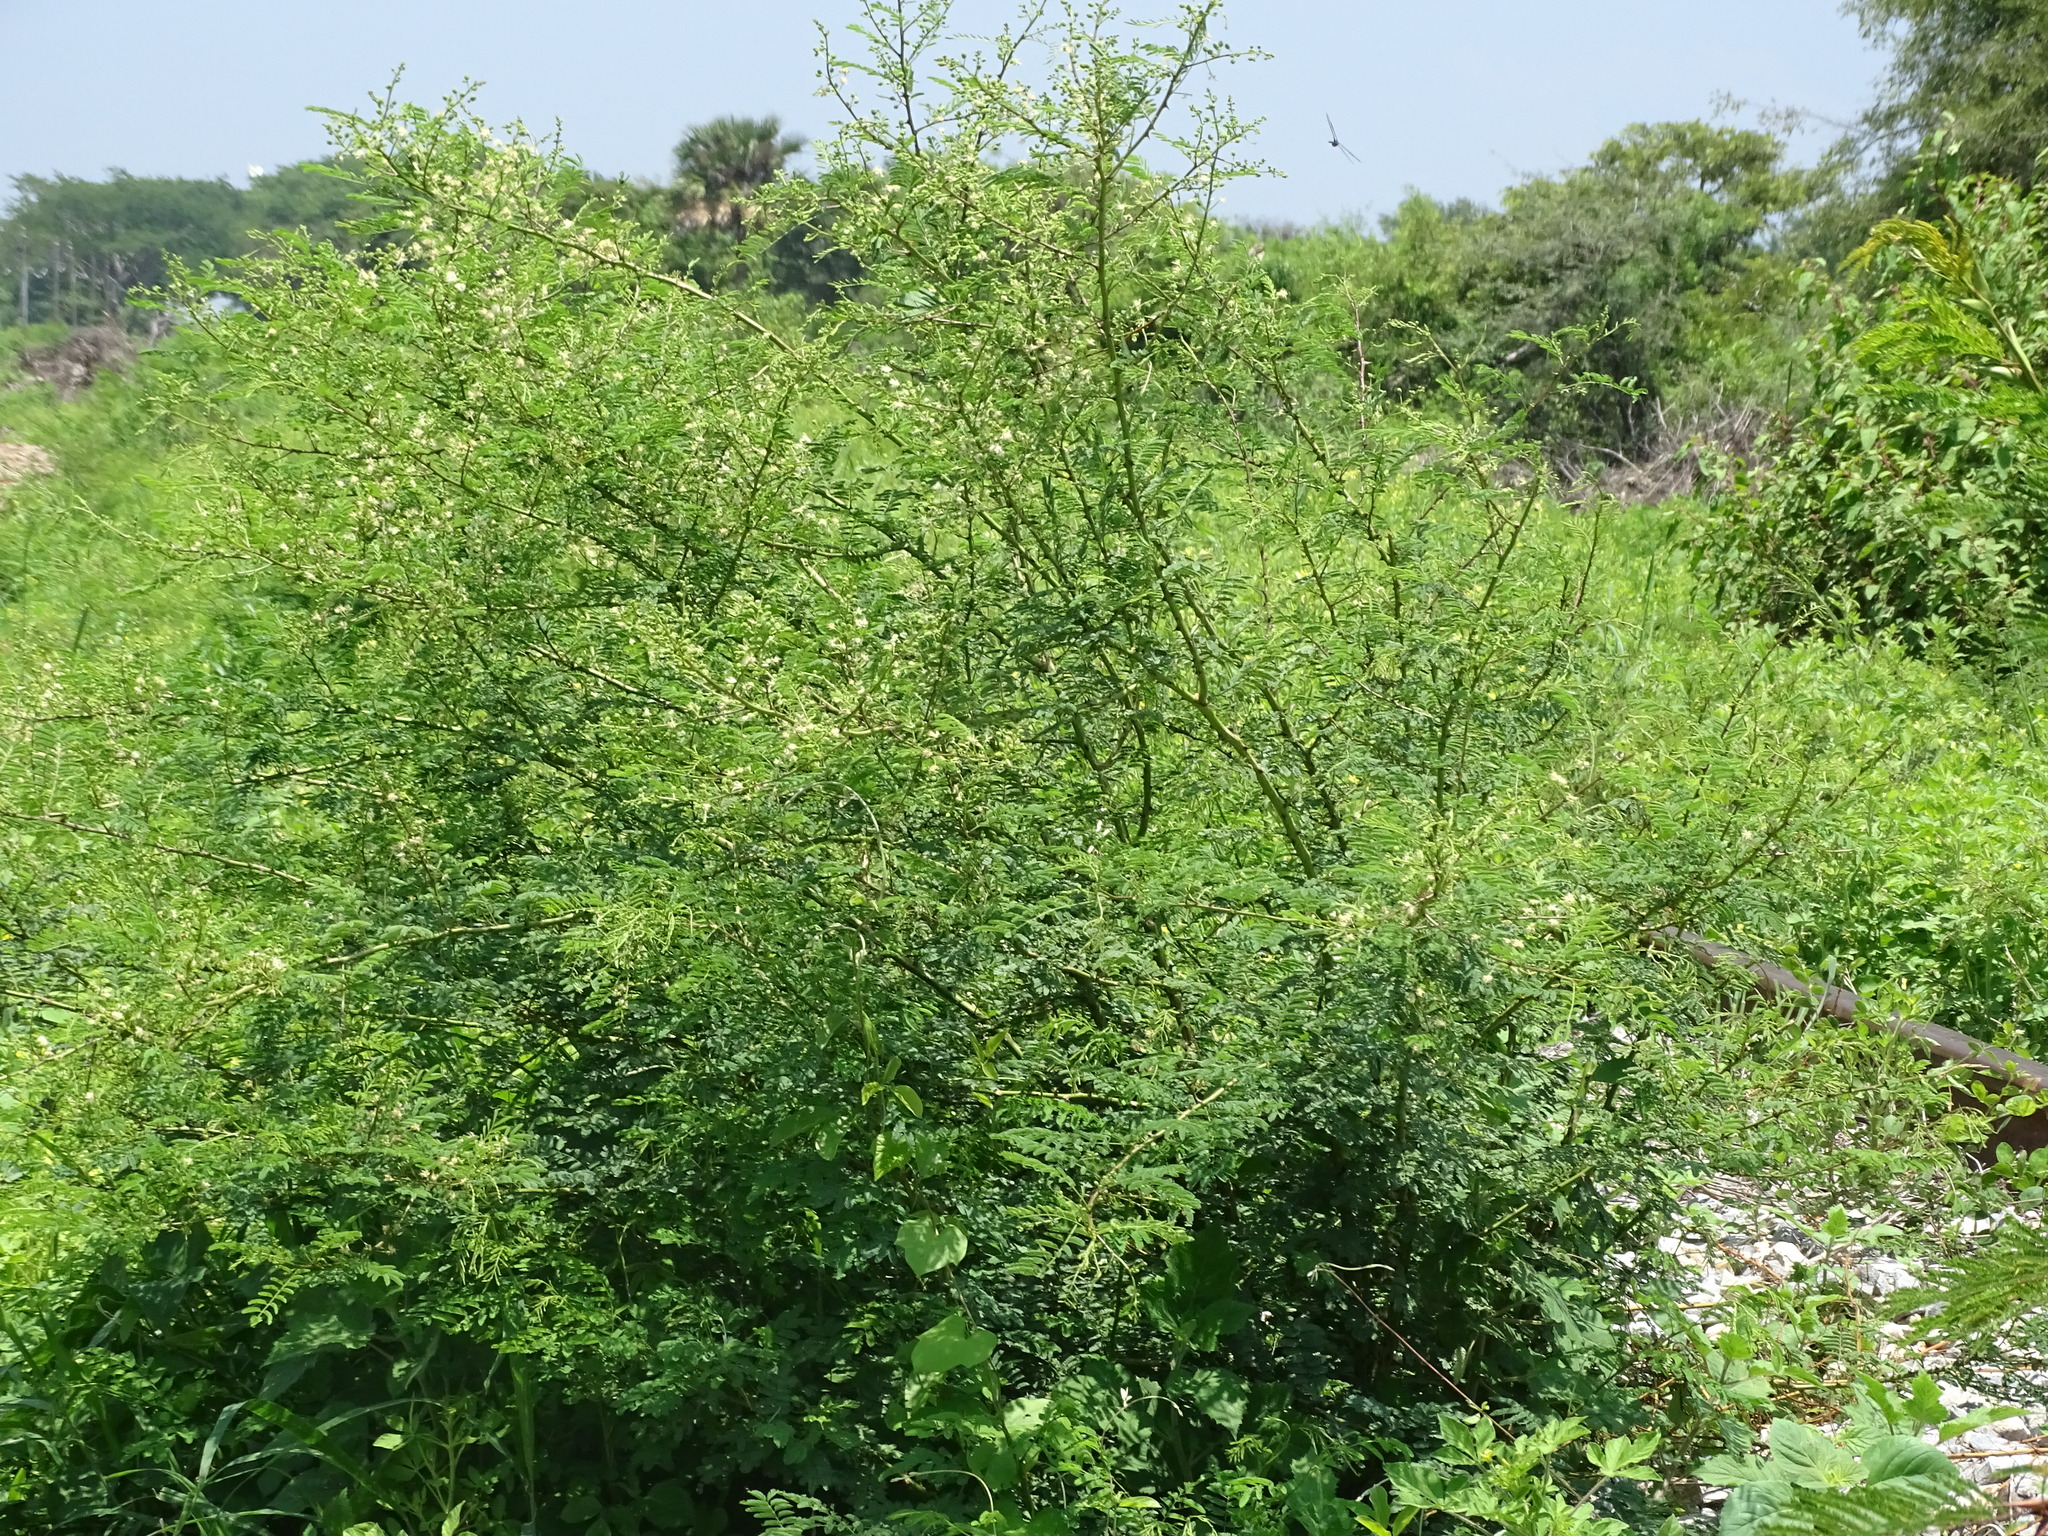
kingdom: Plantae
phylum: Tracheophyta
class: Magnoliopsida
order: Fabales
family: Fabaceae
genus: Mimosa
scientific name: Mimosa acantholoba
